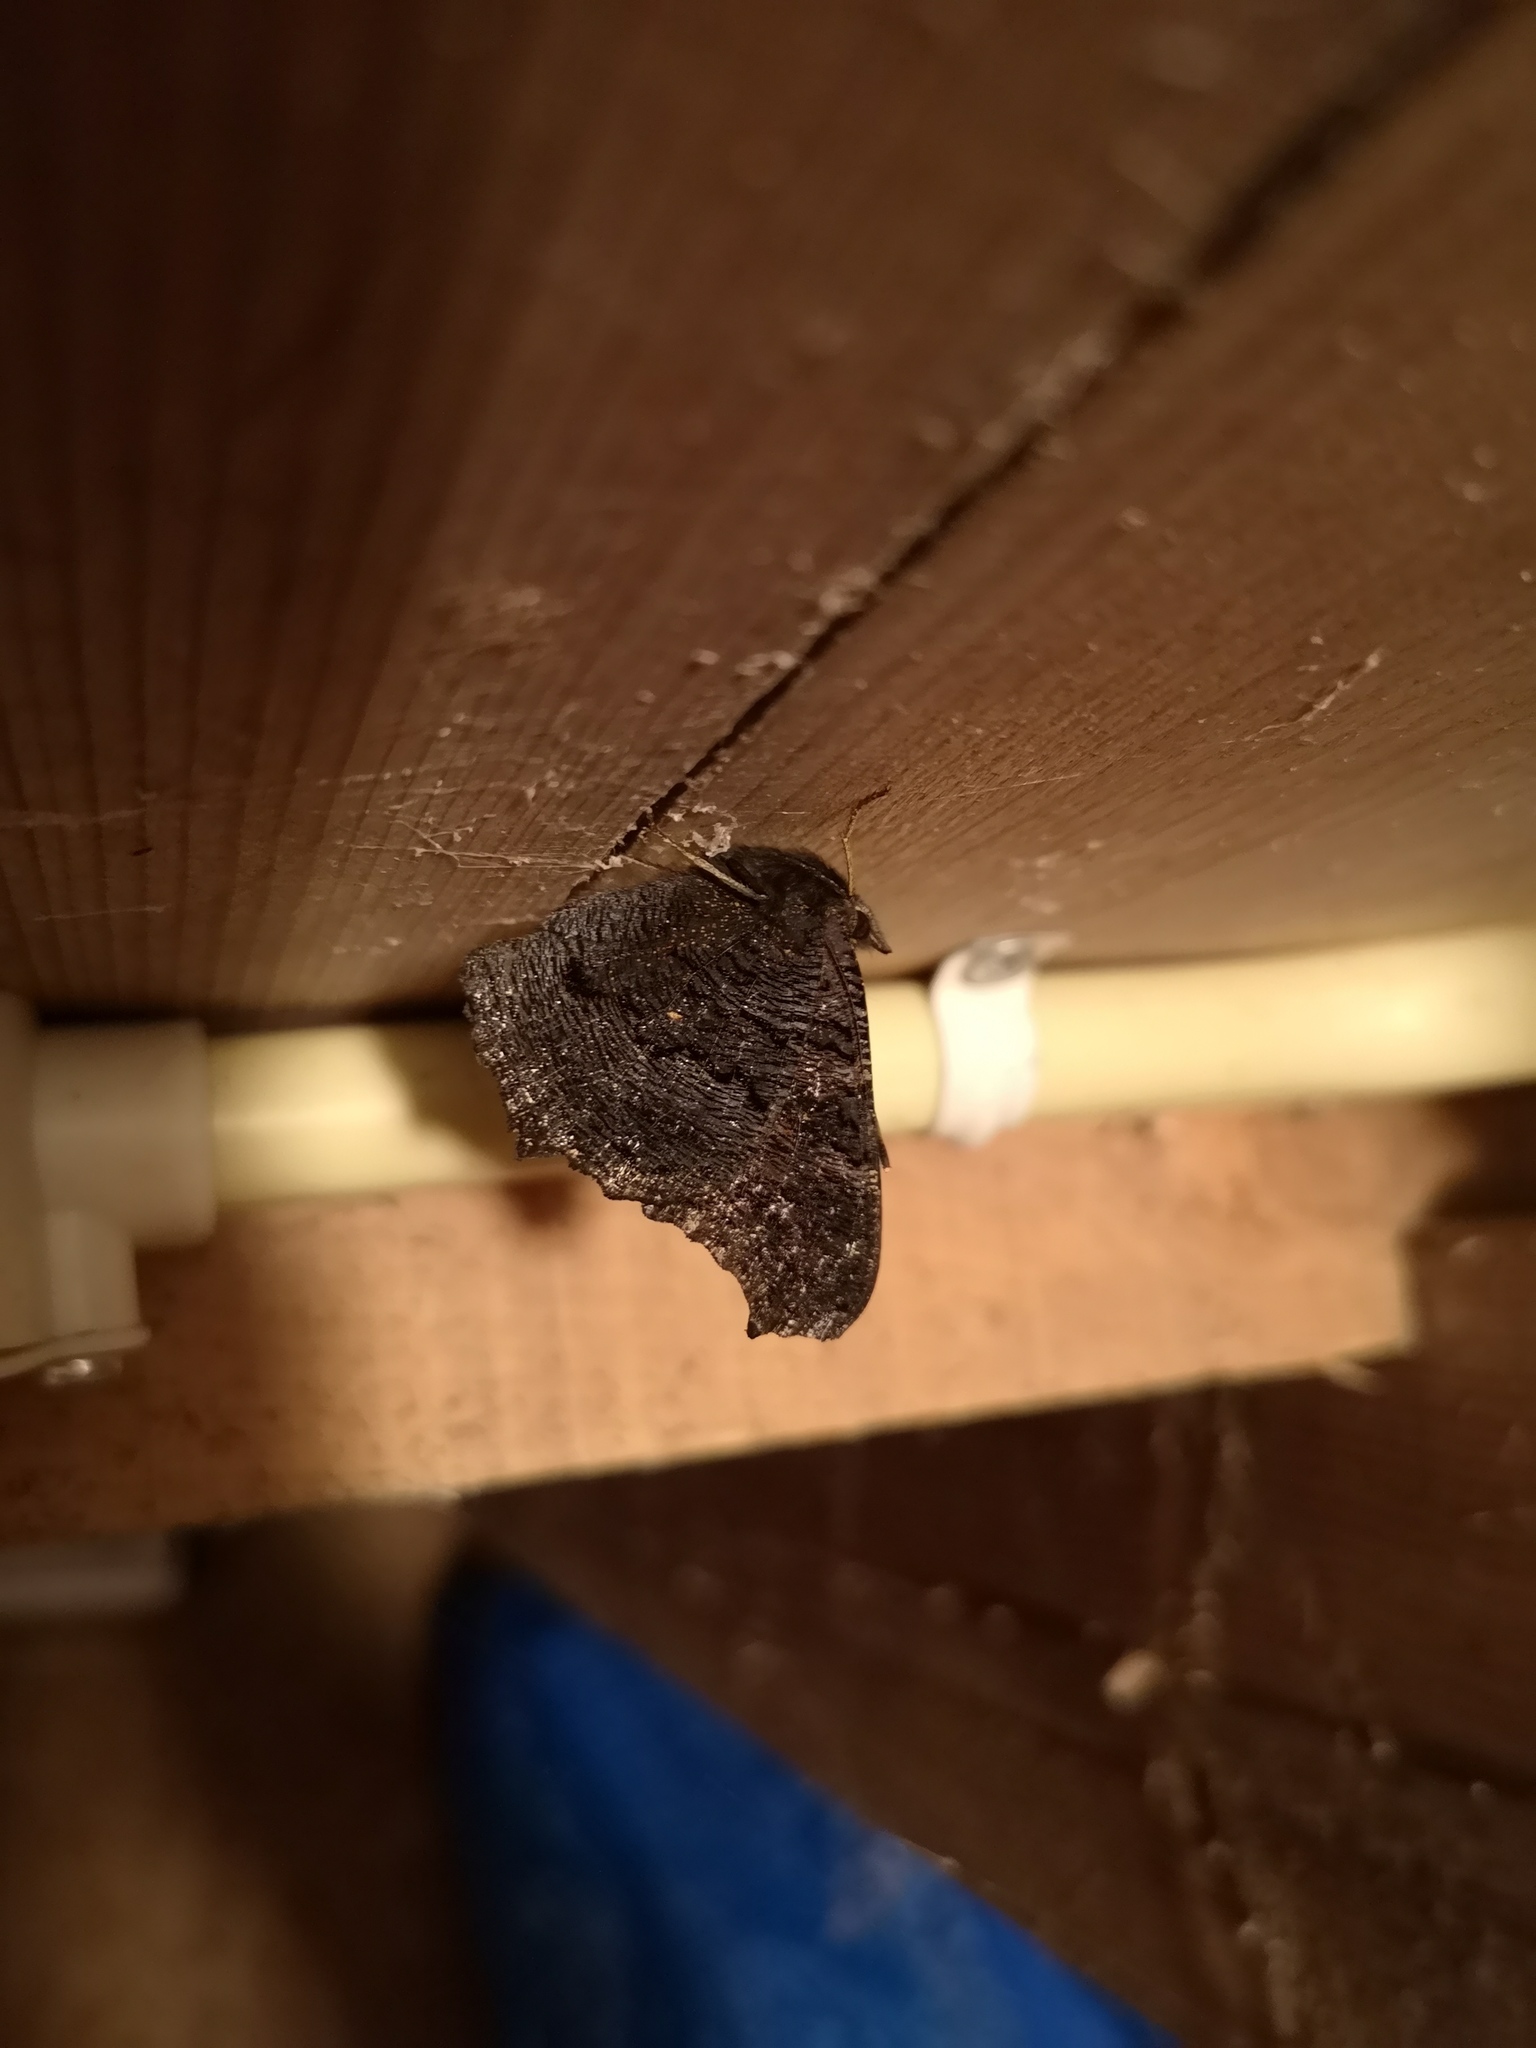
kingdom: Animalia
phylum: Arthropoda
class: Insecta
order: Lepidoptera
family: Nymphalidae
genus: Aglais
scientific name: Aglais io
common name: Peacock
